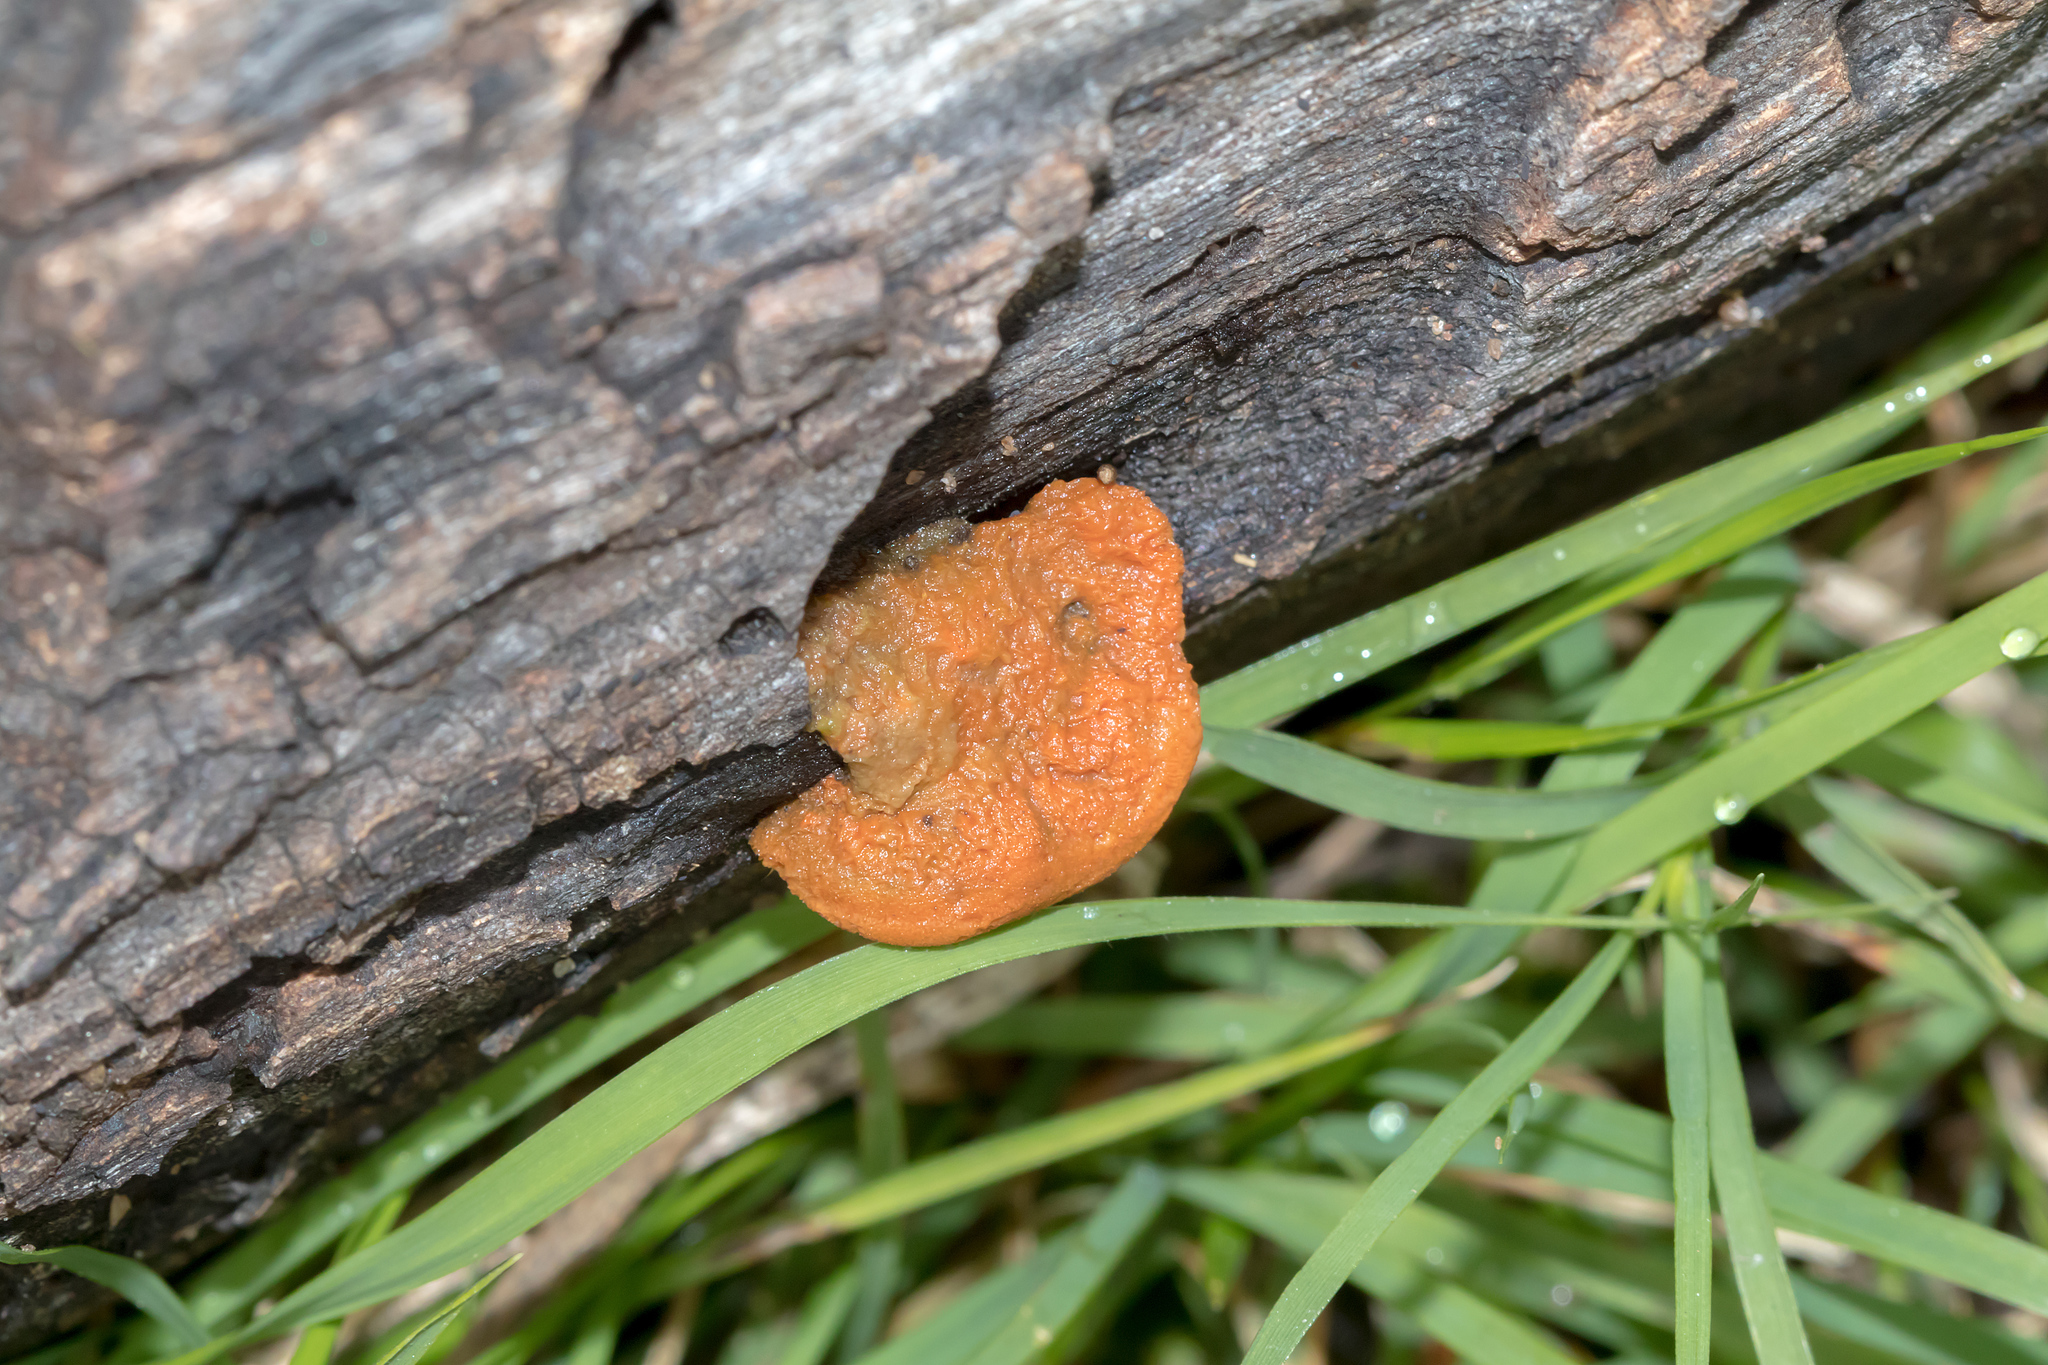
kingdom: Fungi
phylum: Basidiomycota
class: Agaricomycetes
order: Polyporales
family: Polyporaceae
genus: Trametes
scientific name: Trametes coccinea
